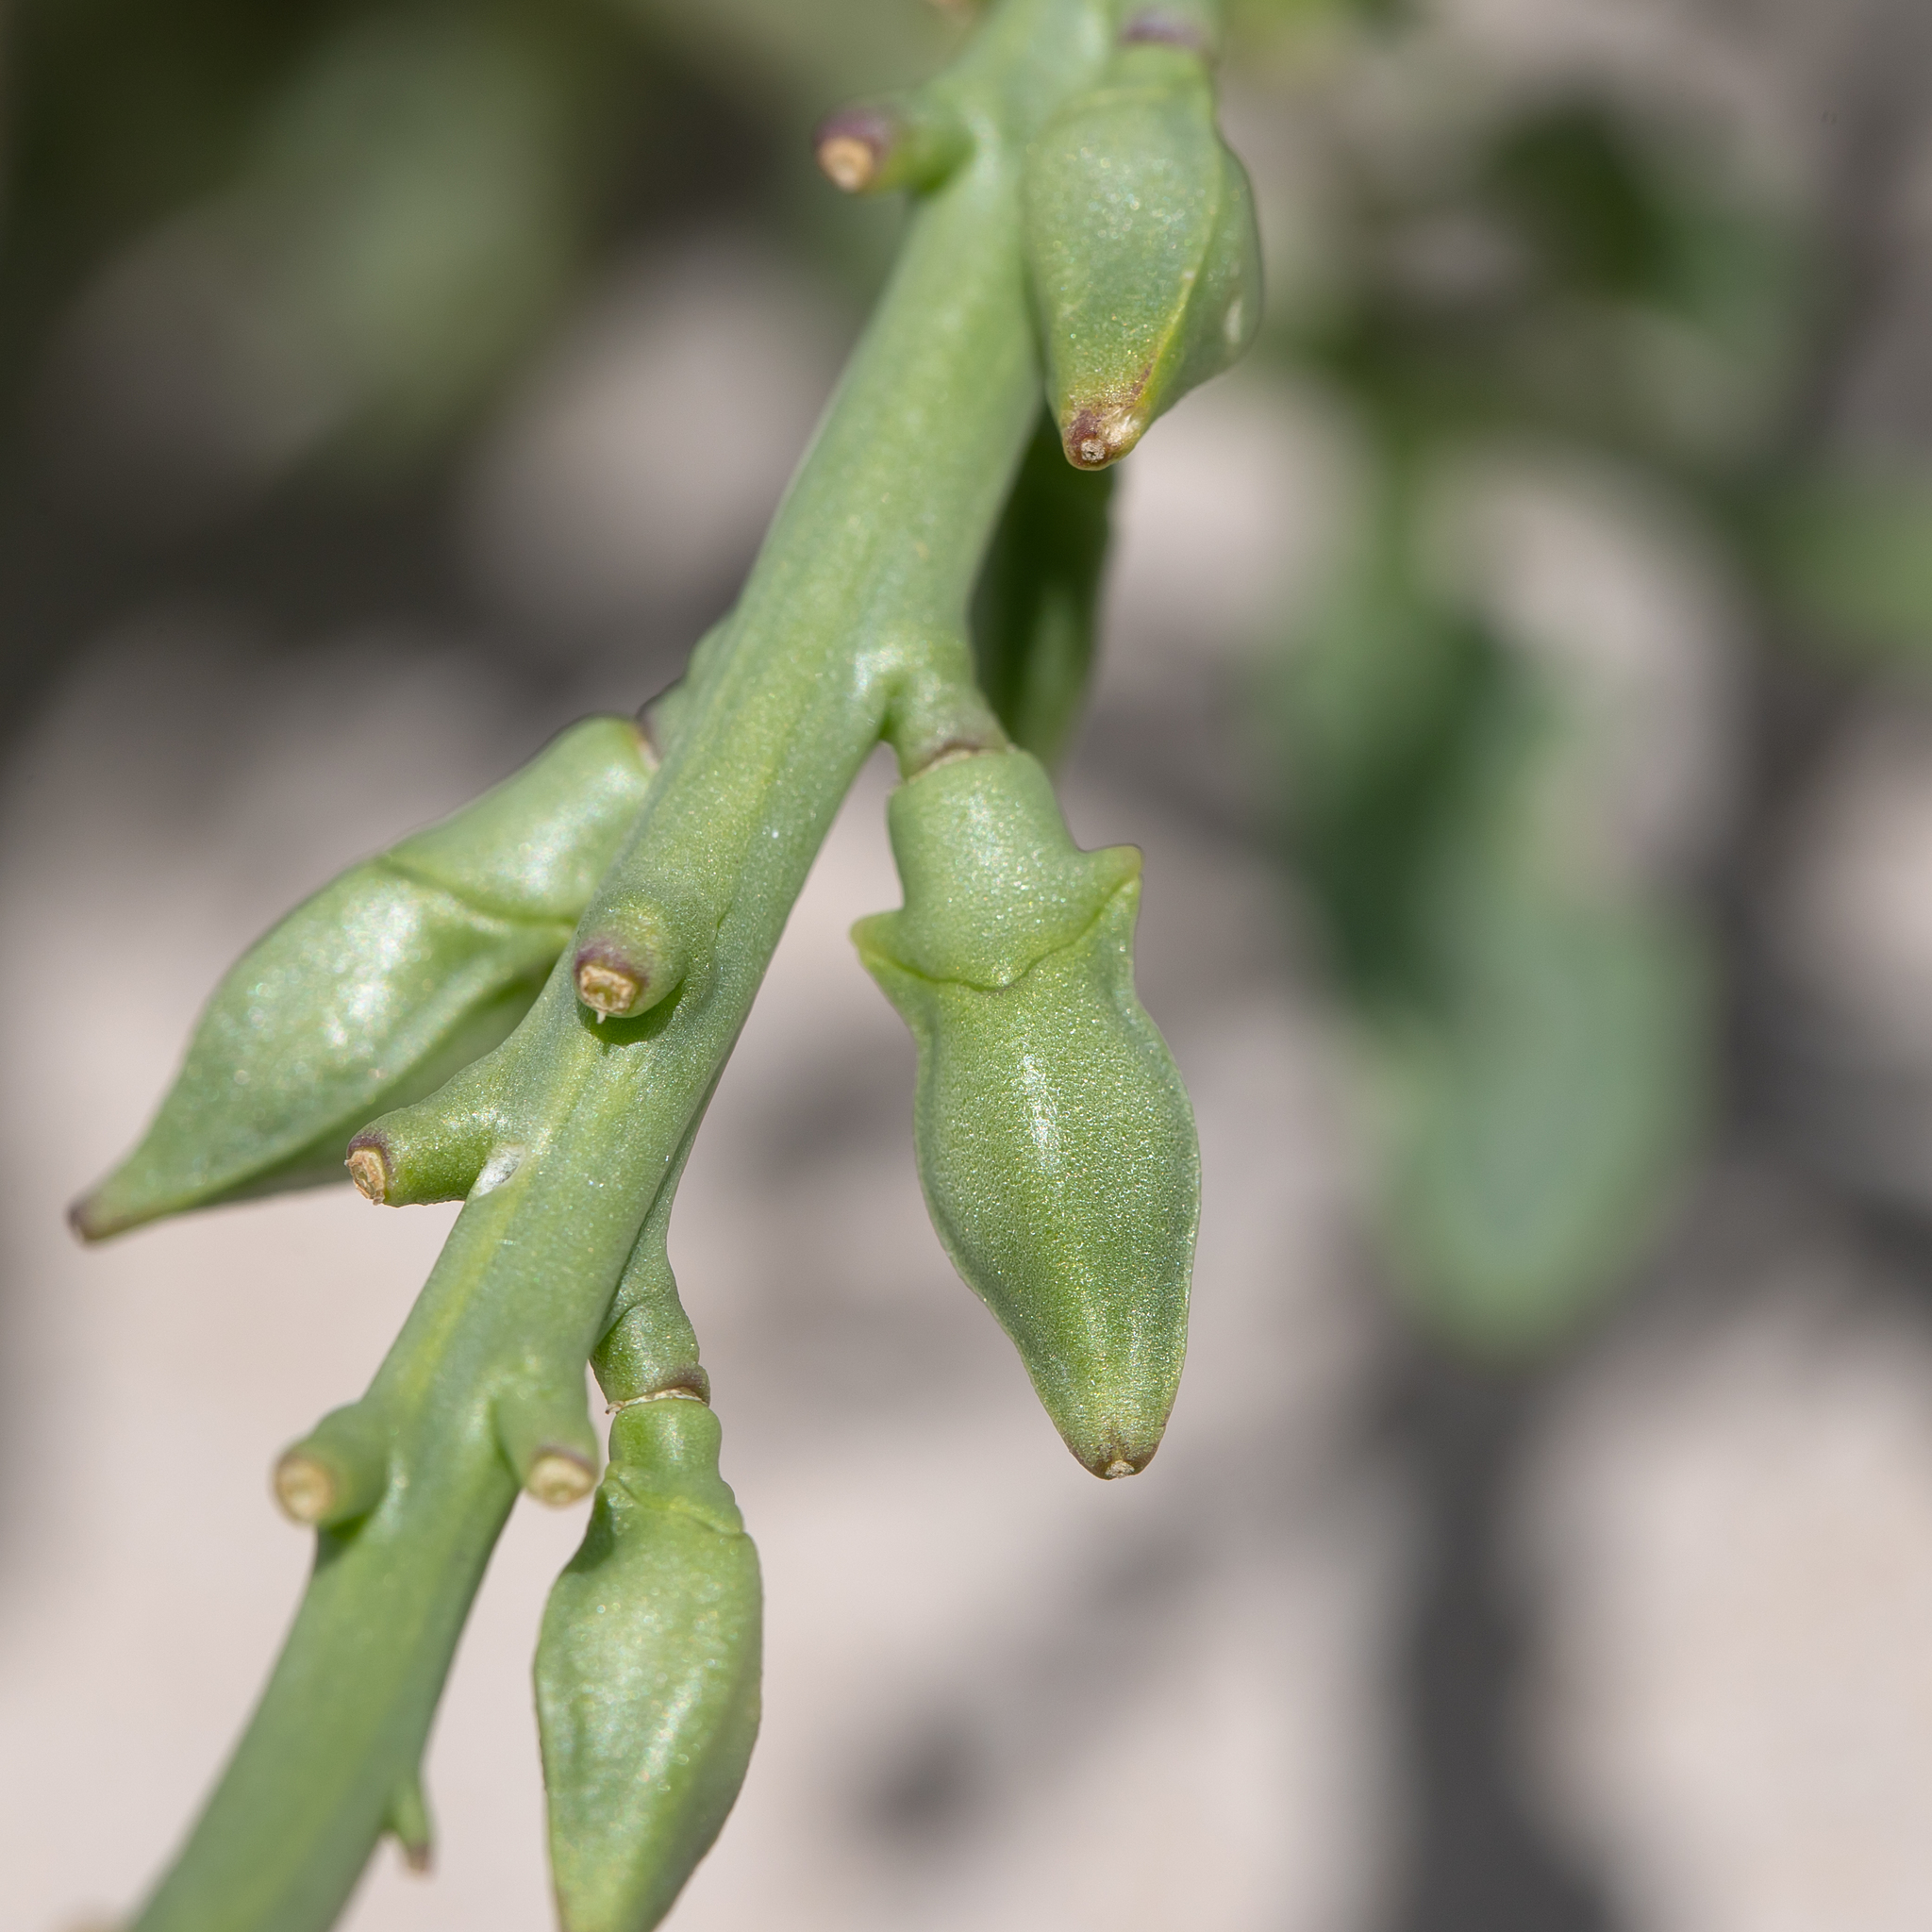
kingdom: Plantae
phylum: Tracheophyta
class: Magnoliopsida
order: Brassicales
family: Brassicaceae
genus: Cakile
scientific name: Cakile maritima
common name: Sea rocket
